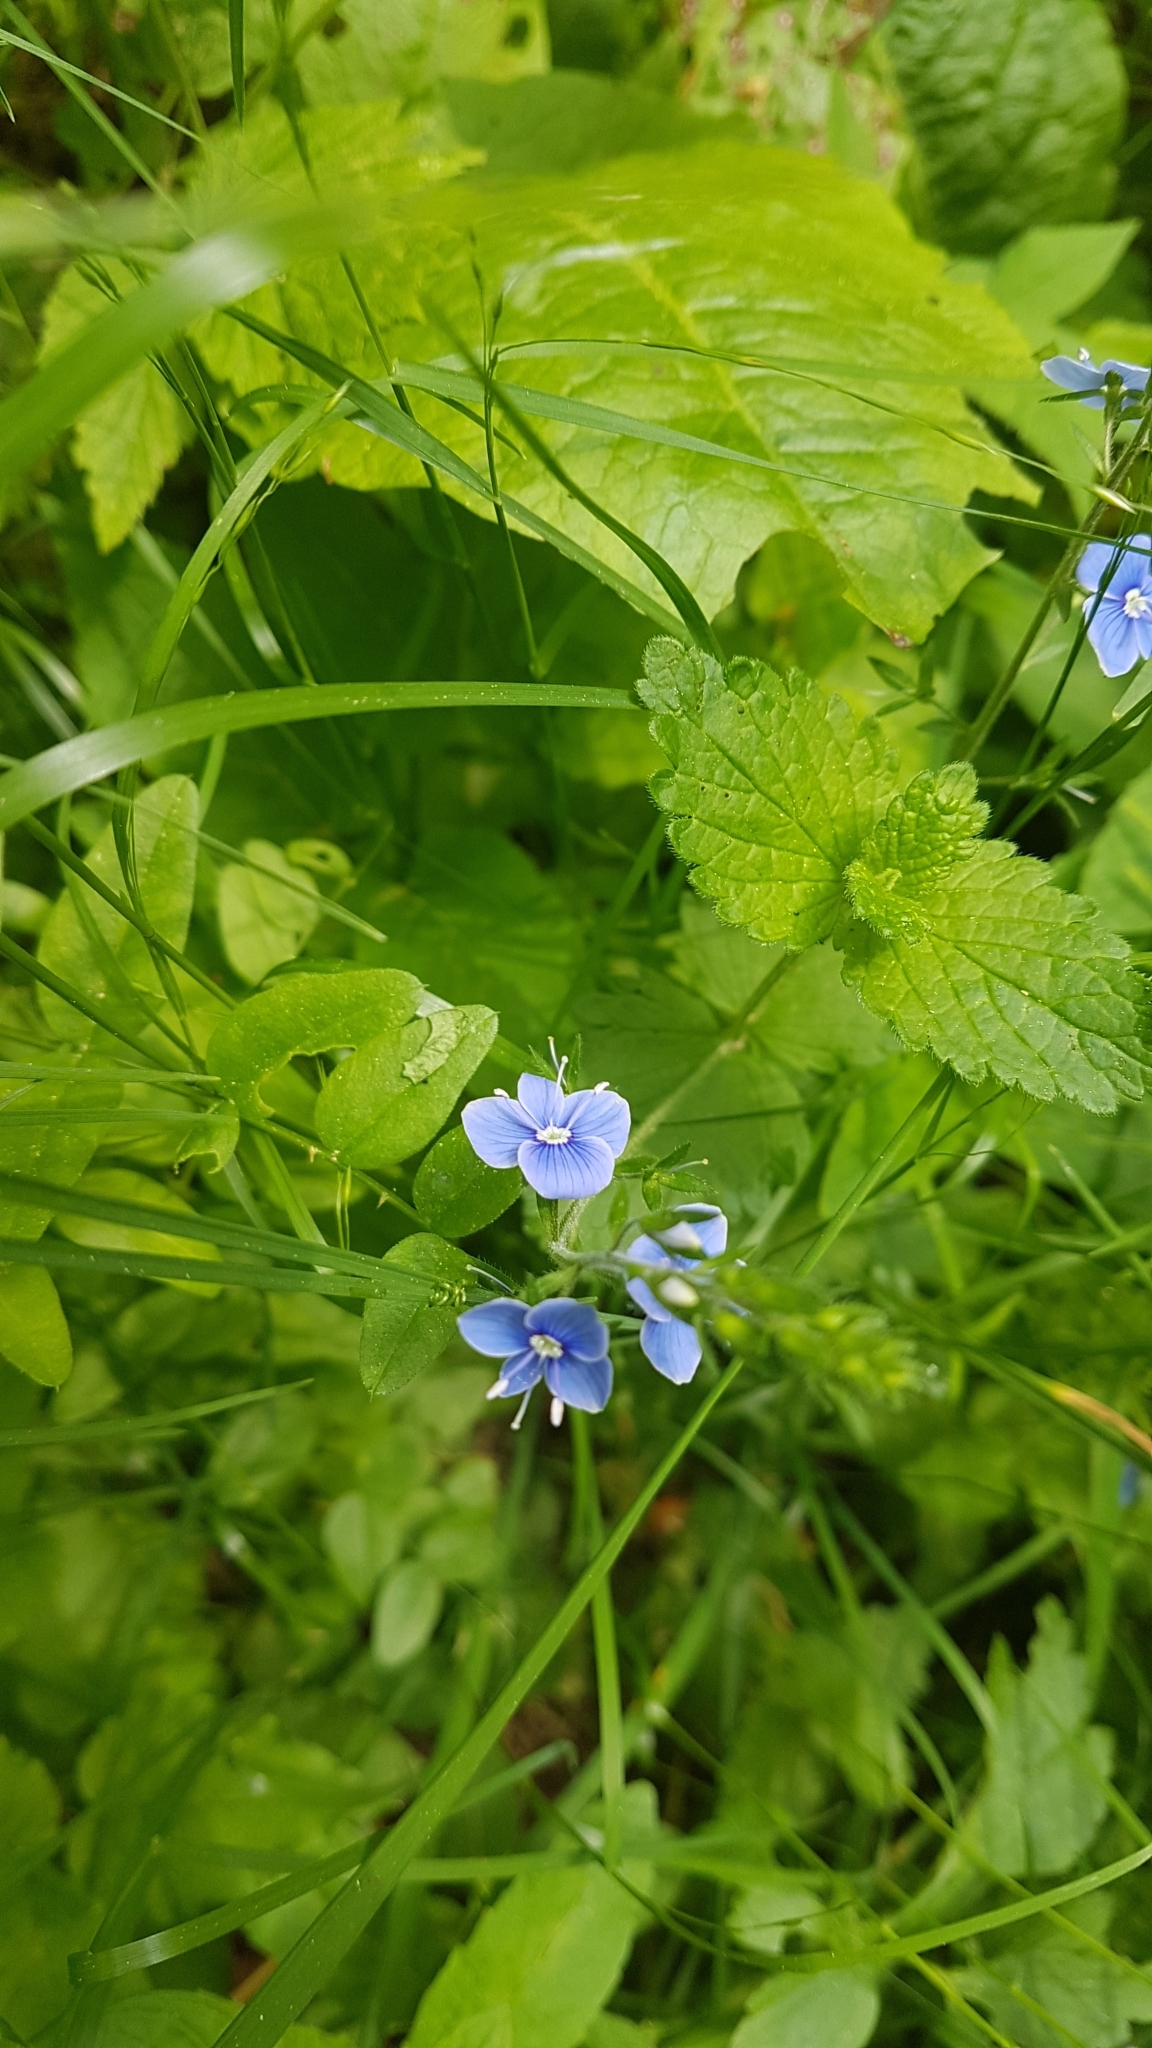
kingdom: Plantae
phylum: Tracheophyta
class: Magnoliopsida
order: Lamiales
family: Plantaginaceae
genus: Veronica
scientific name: Veronica chamaedrys
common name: Germander speedwell
